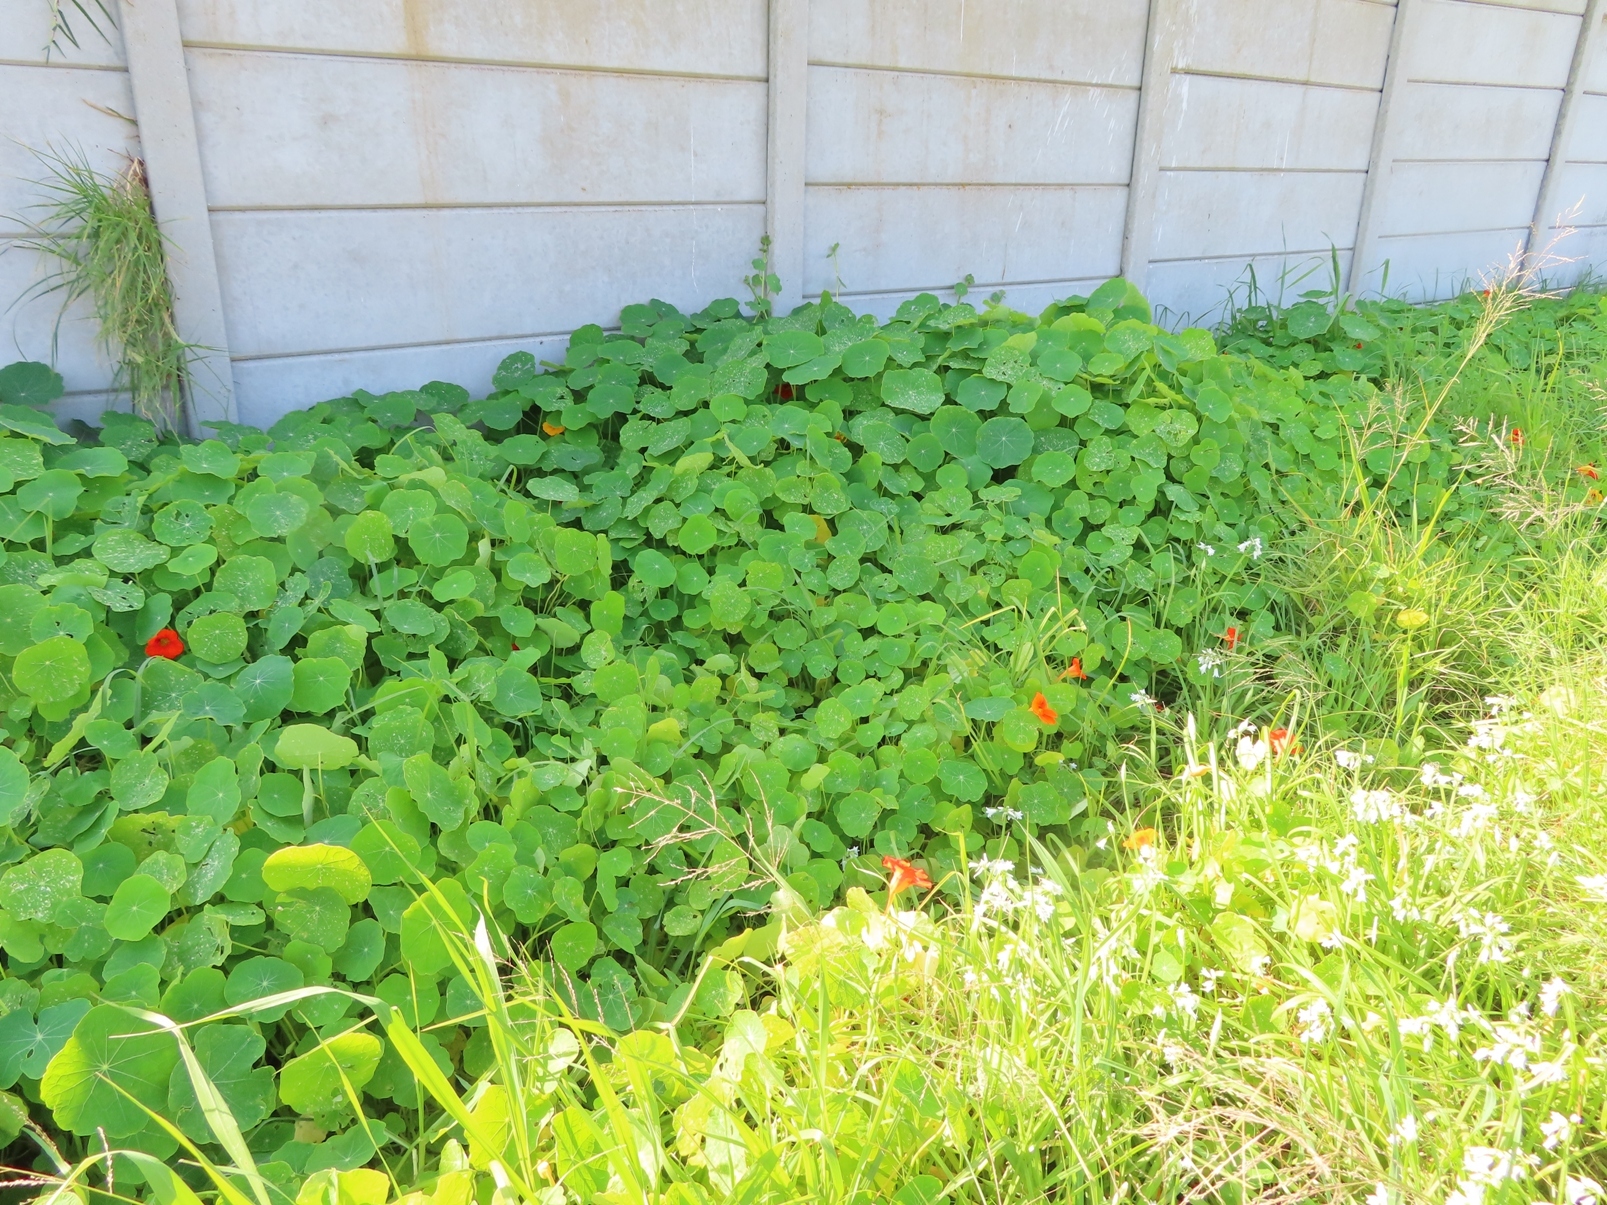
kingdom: Plantae
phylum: Tracheophyta
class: Magnoliopsida
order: Brassicales
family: Tropaeolaceae
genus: Tropaeolum
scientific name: Tropaeolum majus
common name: Nasturtium
